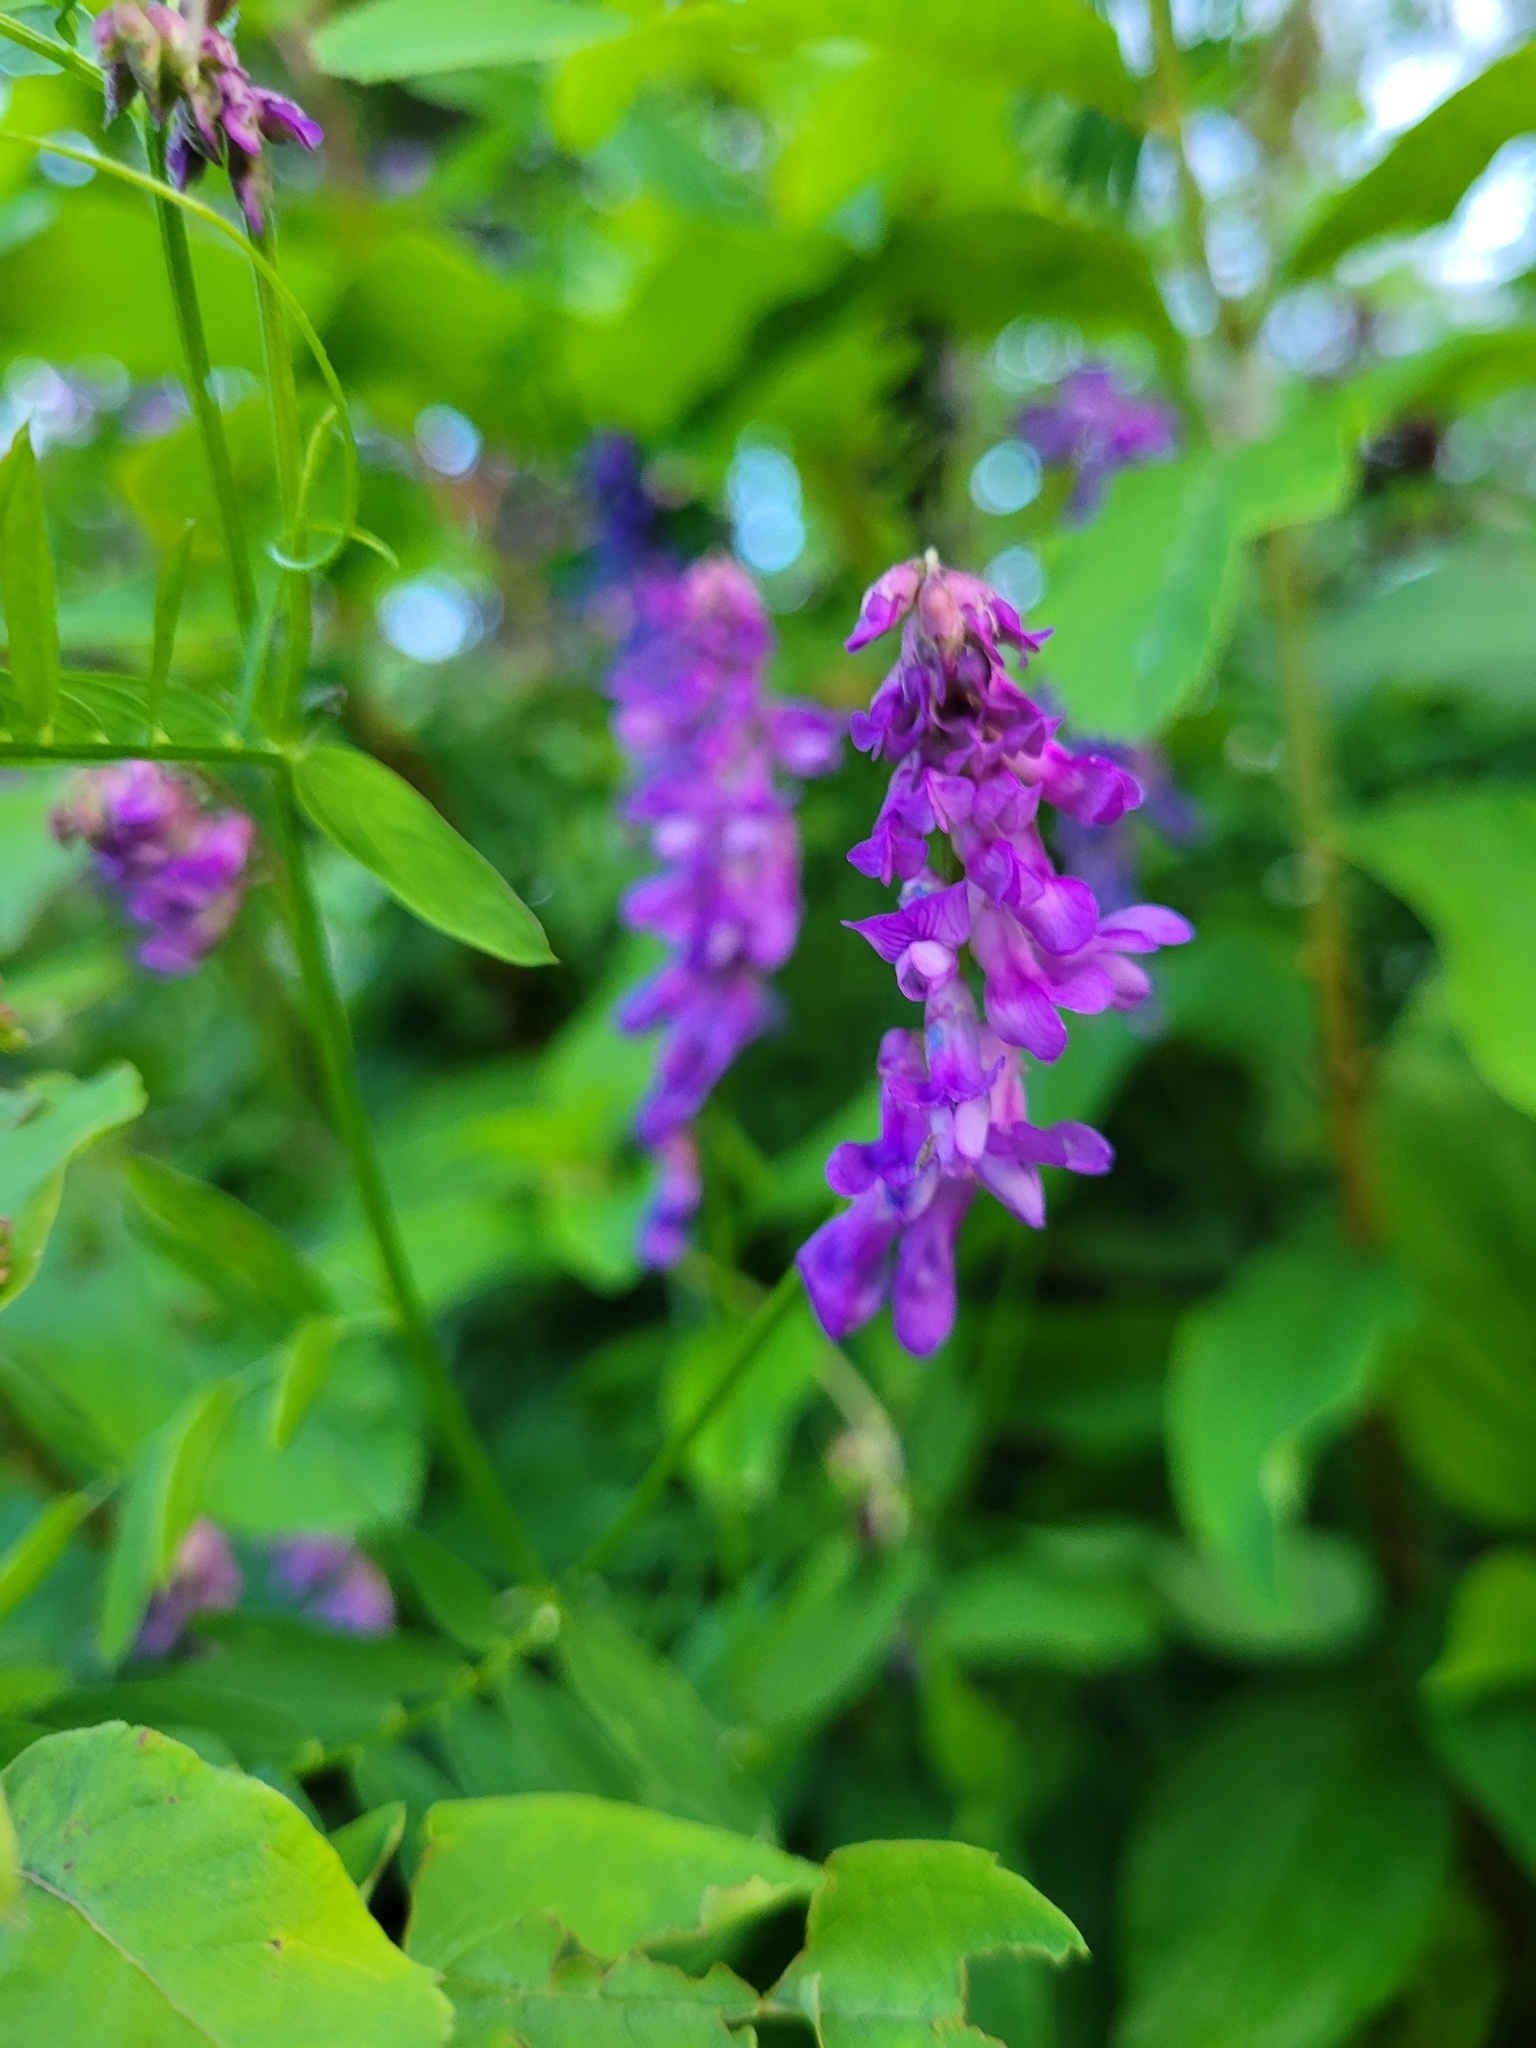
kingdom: Plantae
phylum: Tracheophyta
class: Magnoliopsida
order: Fabales
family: Fabaceae
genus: Vicia
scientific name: Vicia cracca
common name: Bird vetch
